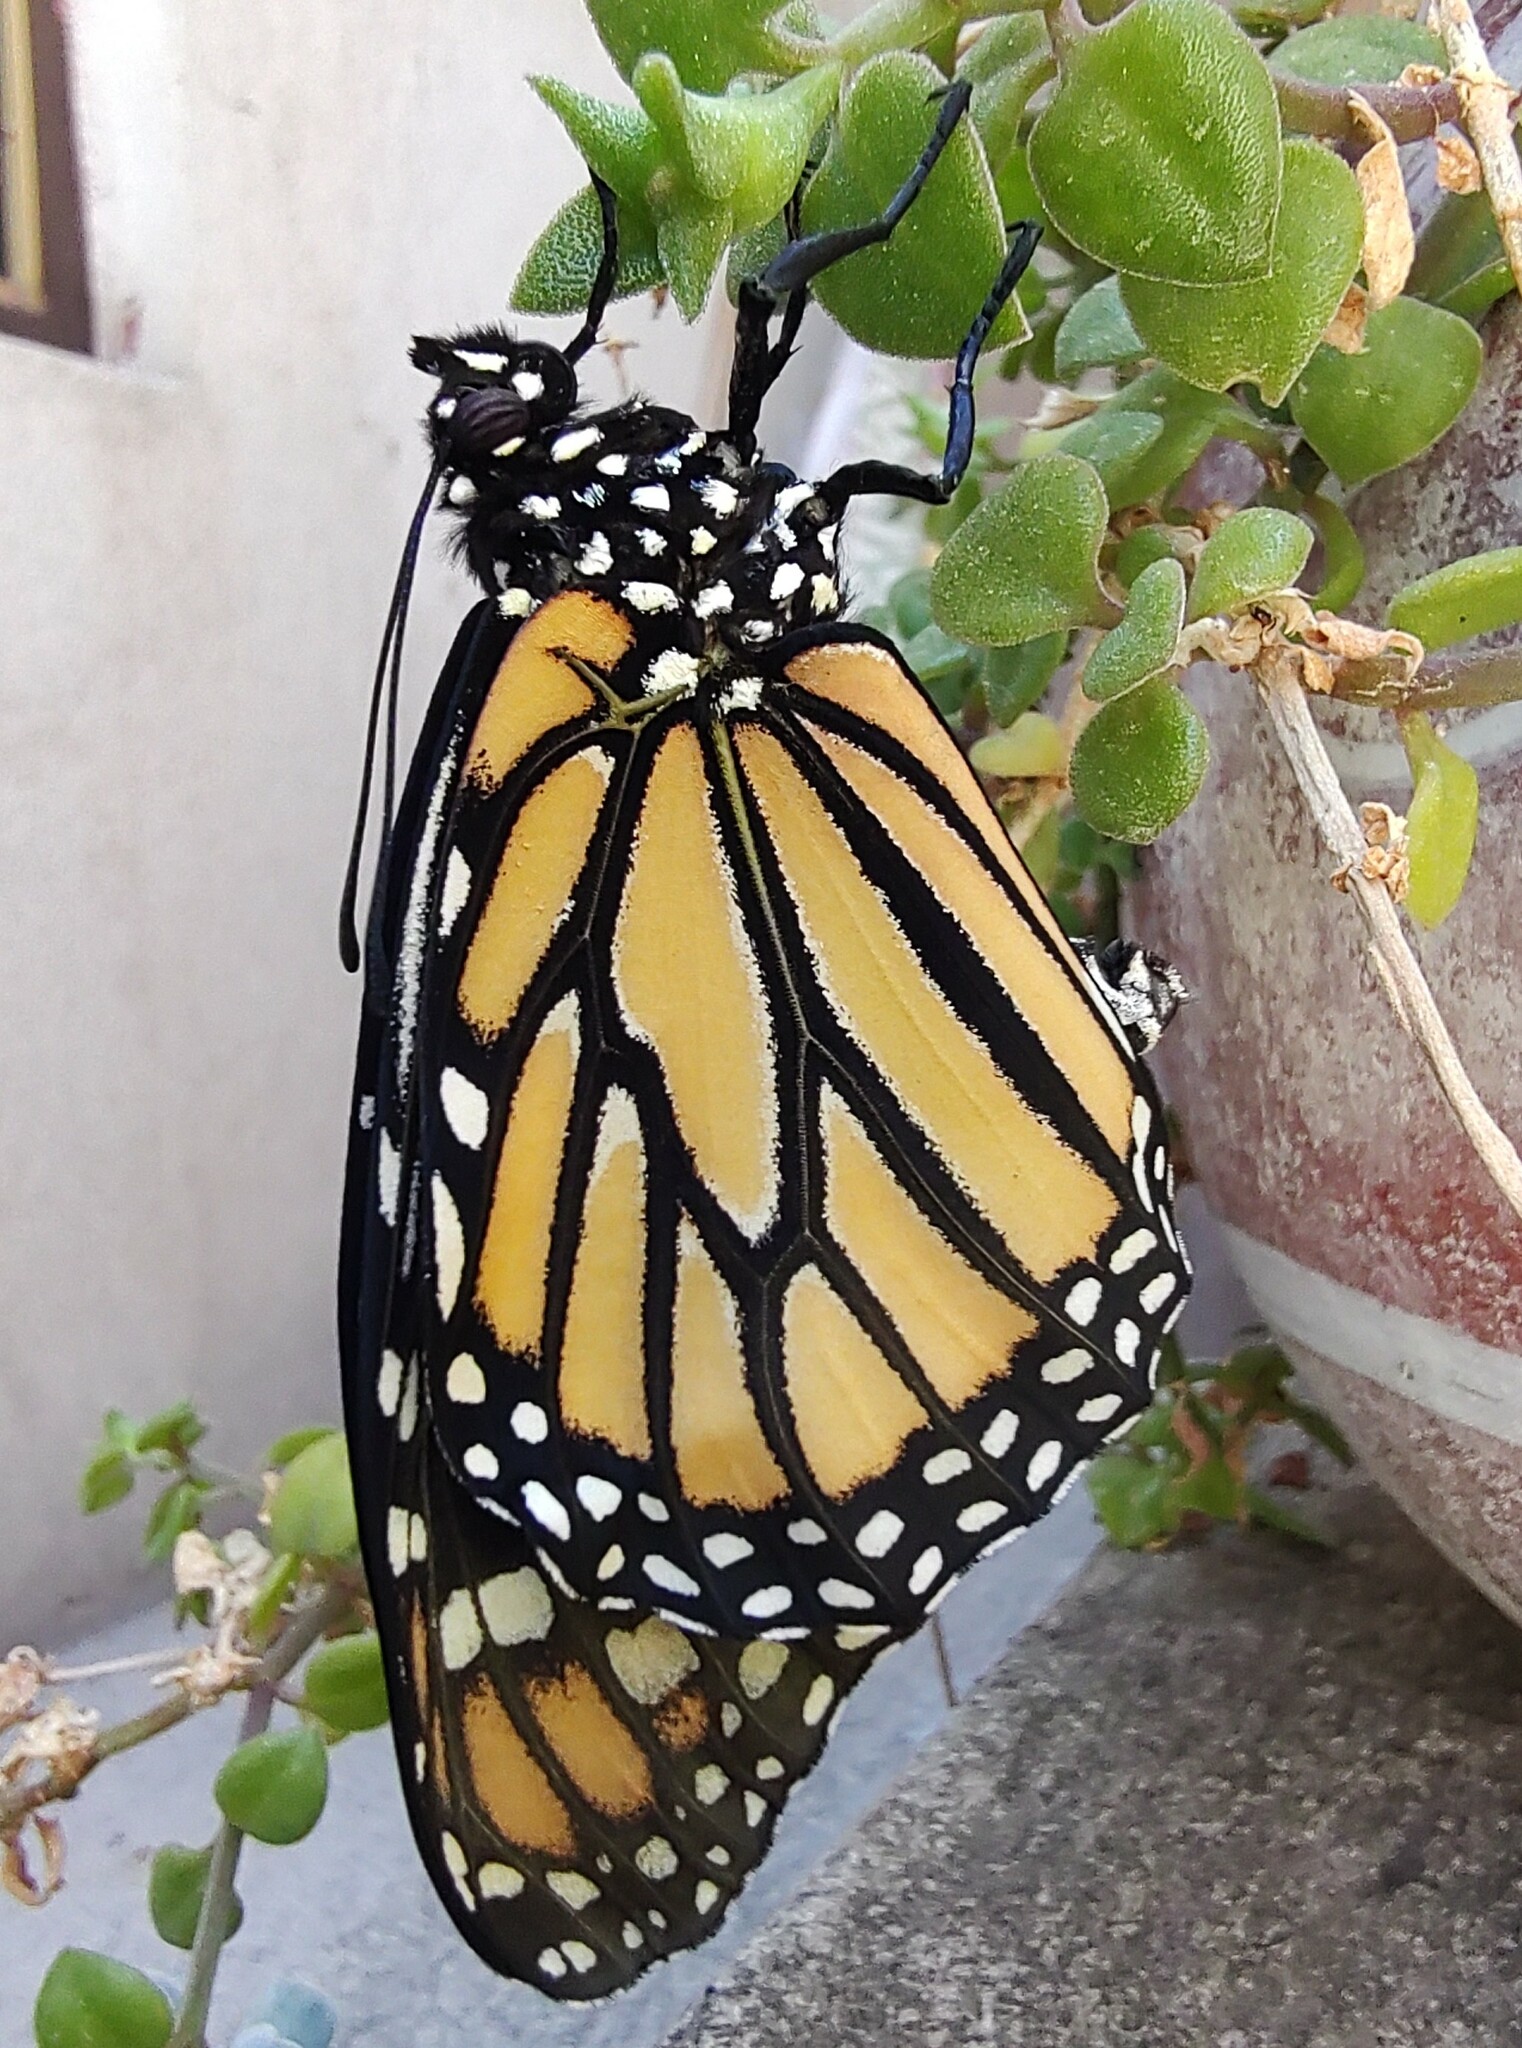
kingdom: Animalia
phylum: Arthropoda
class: Insecta
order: Lepidoptera
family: Nymphalidae
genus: Danaus
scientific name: Danaus plexippus
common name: Monarch
